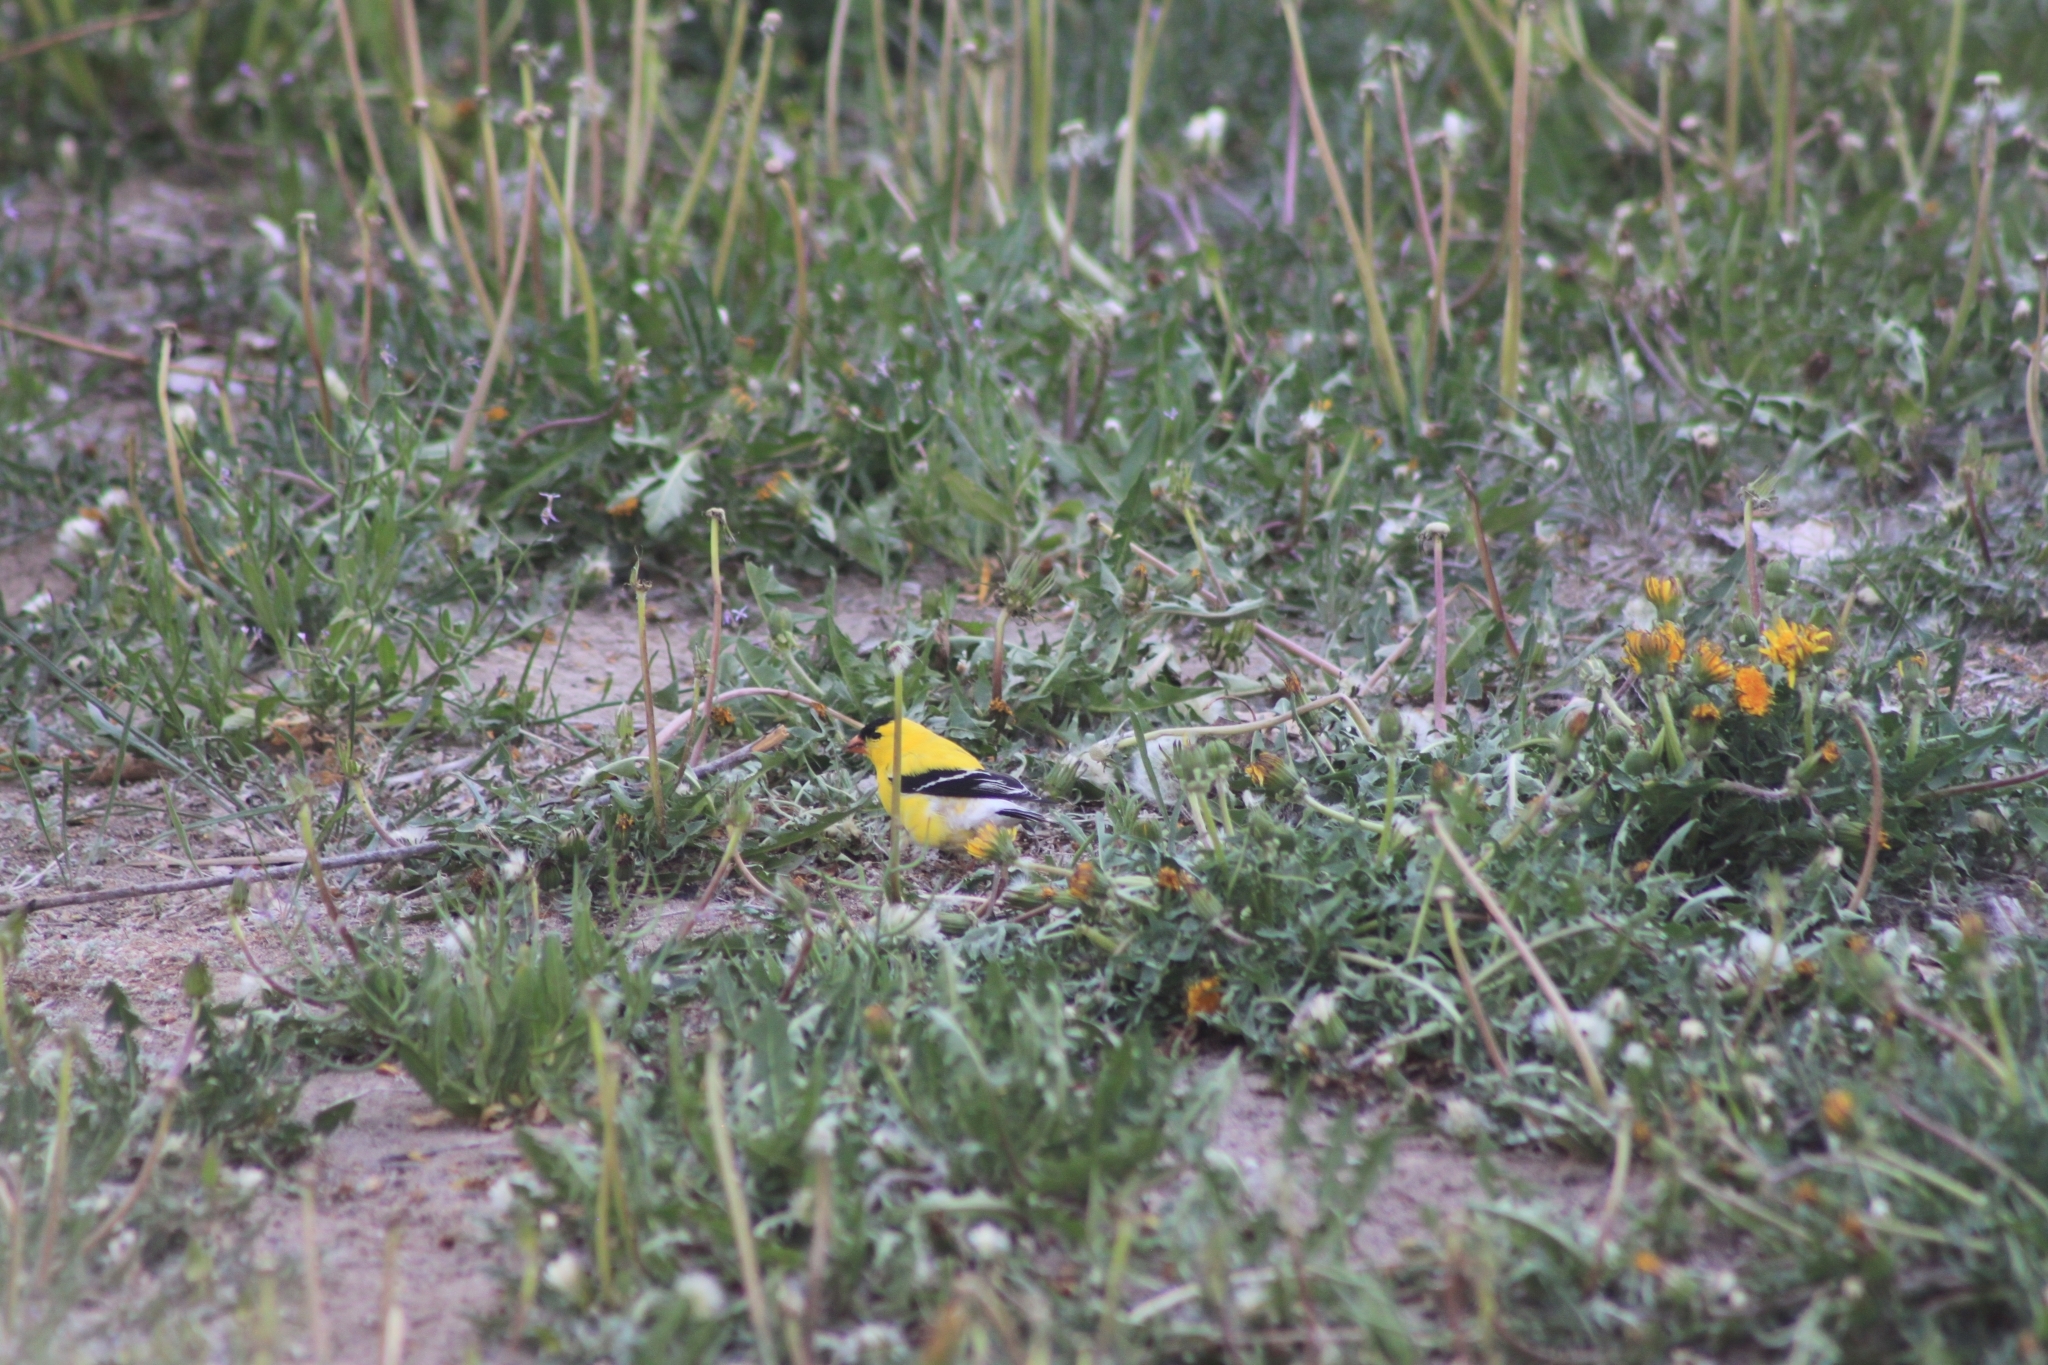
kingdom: Animalia
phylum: Chordata
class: Aves
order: Passeriformes
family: Fringillidae
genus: Spinus
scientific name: Spinus tristis
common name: American goldfinch
